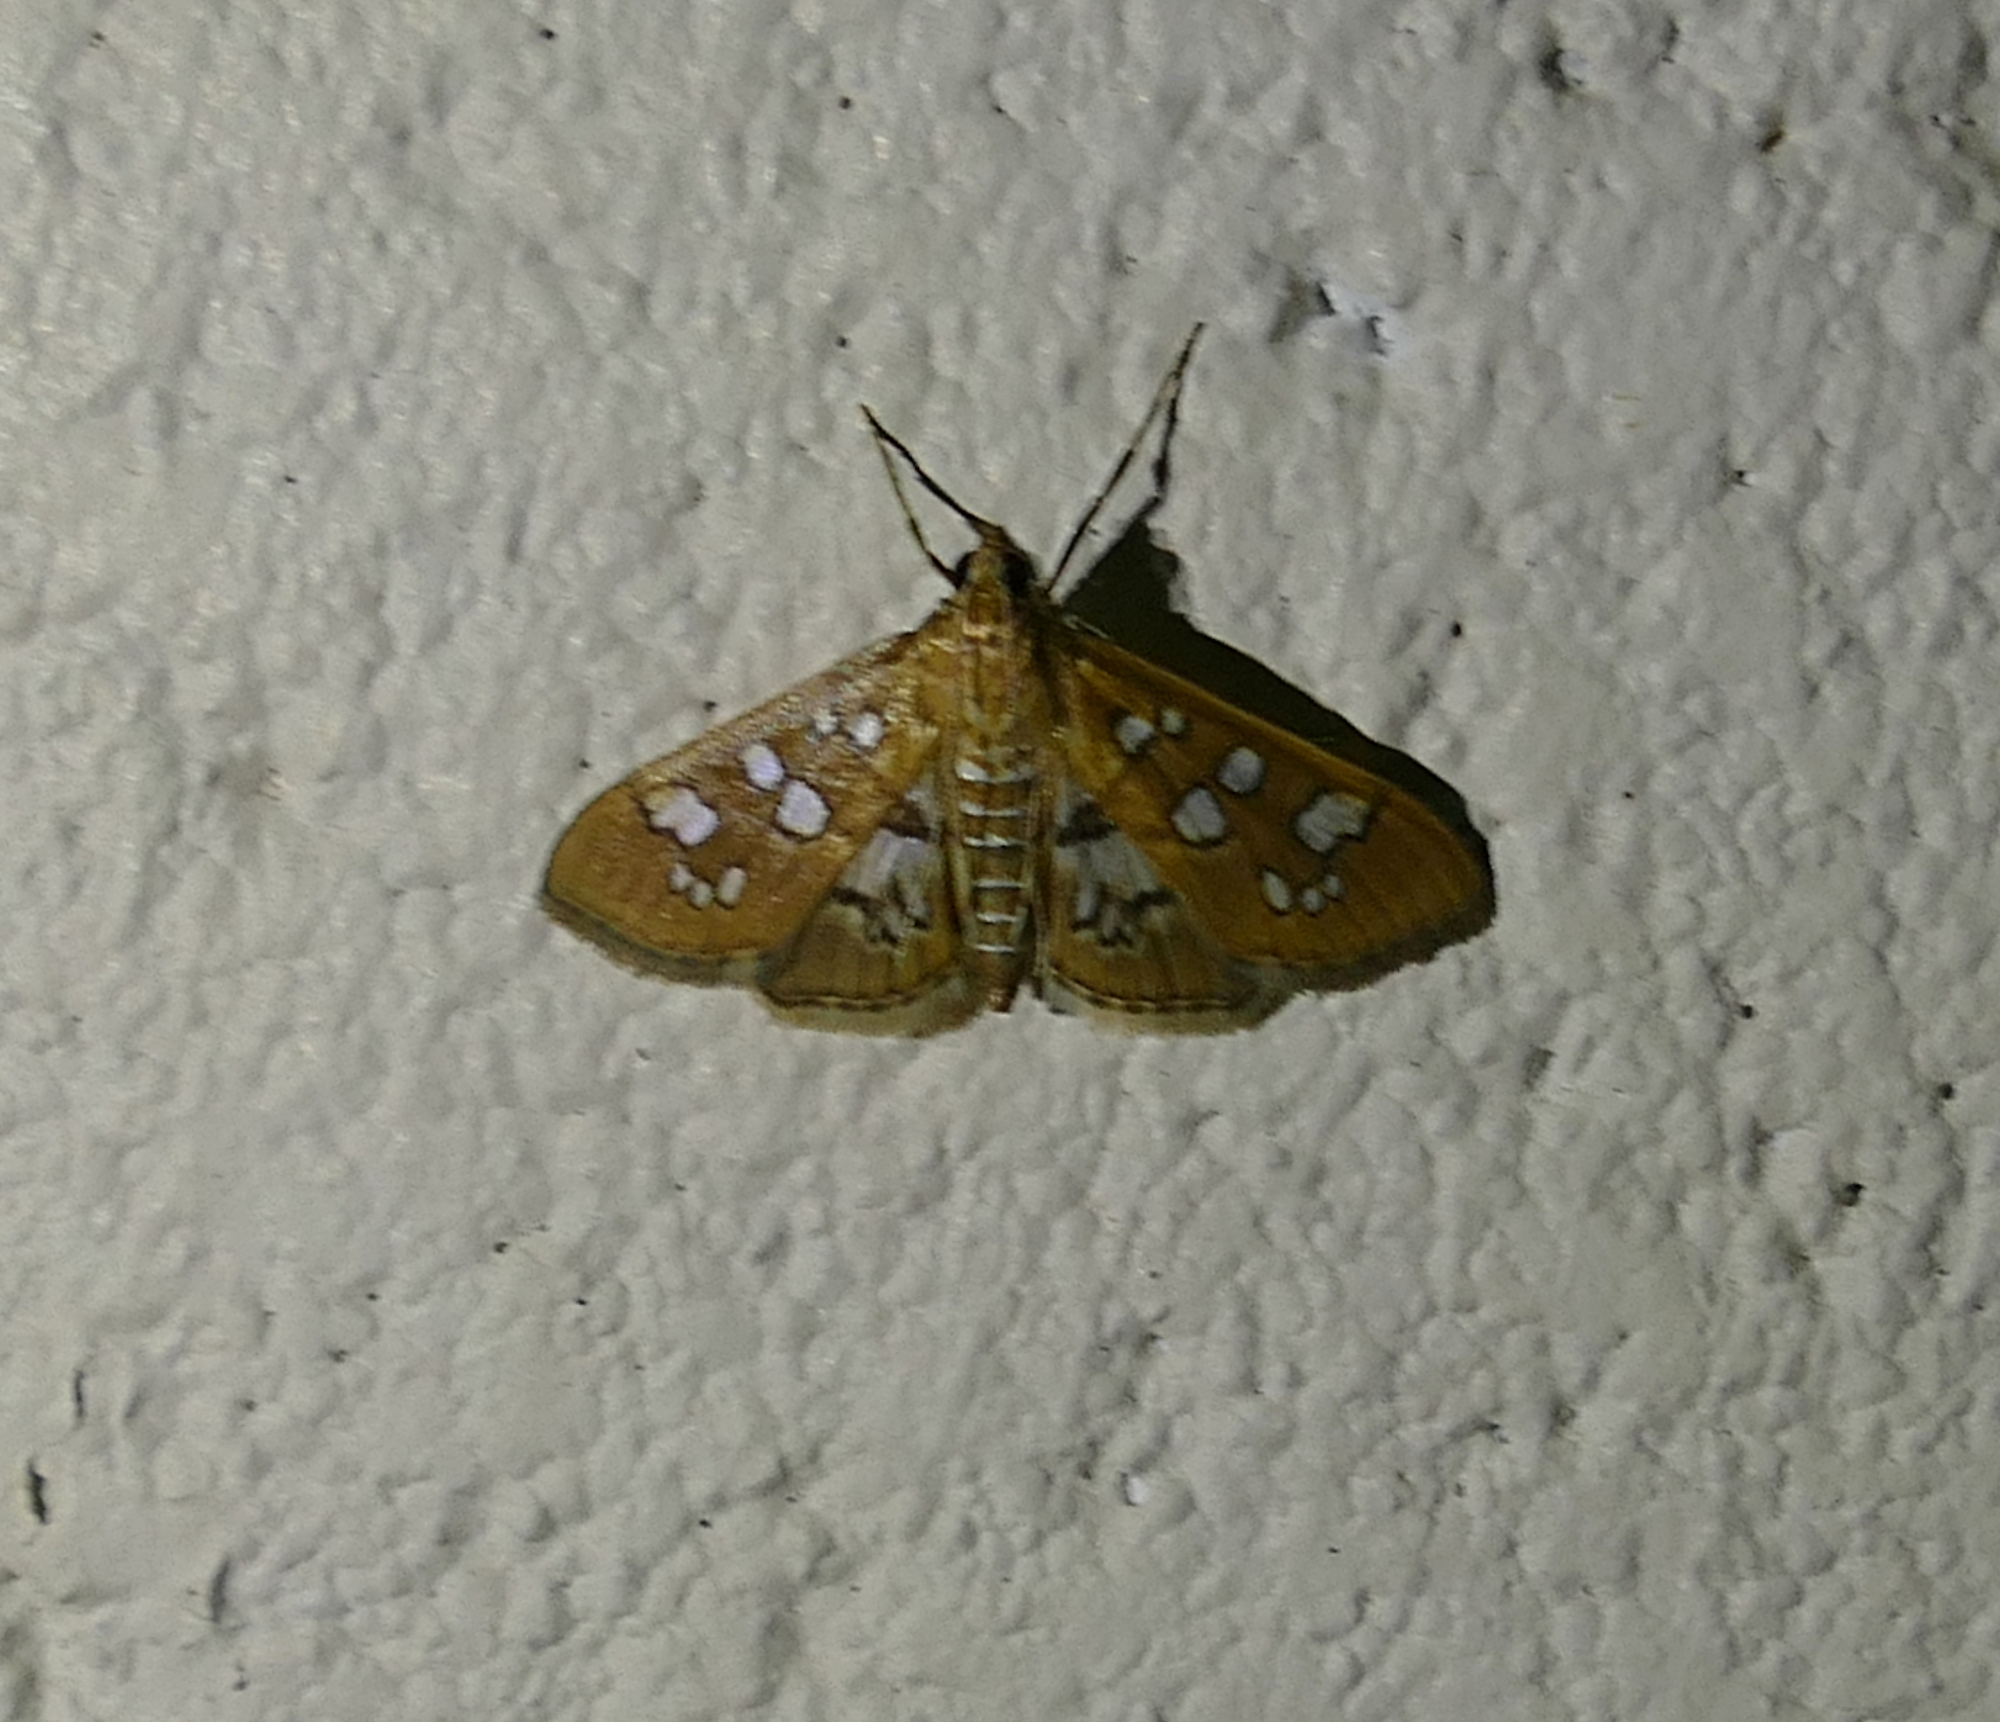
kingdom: Animalia
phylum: Arthropoda
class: Insecta
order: Lepidoptera
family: Crambidae
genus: Samea
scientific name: Samea baccatalis
